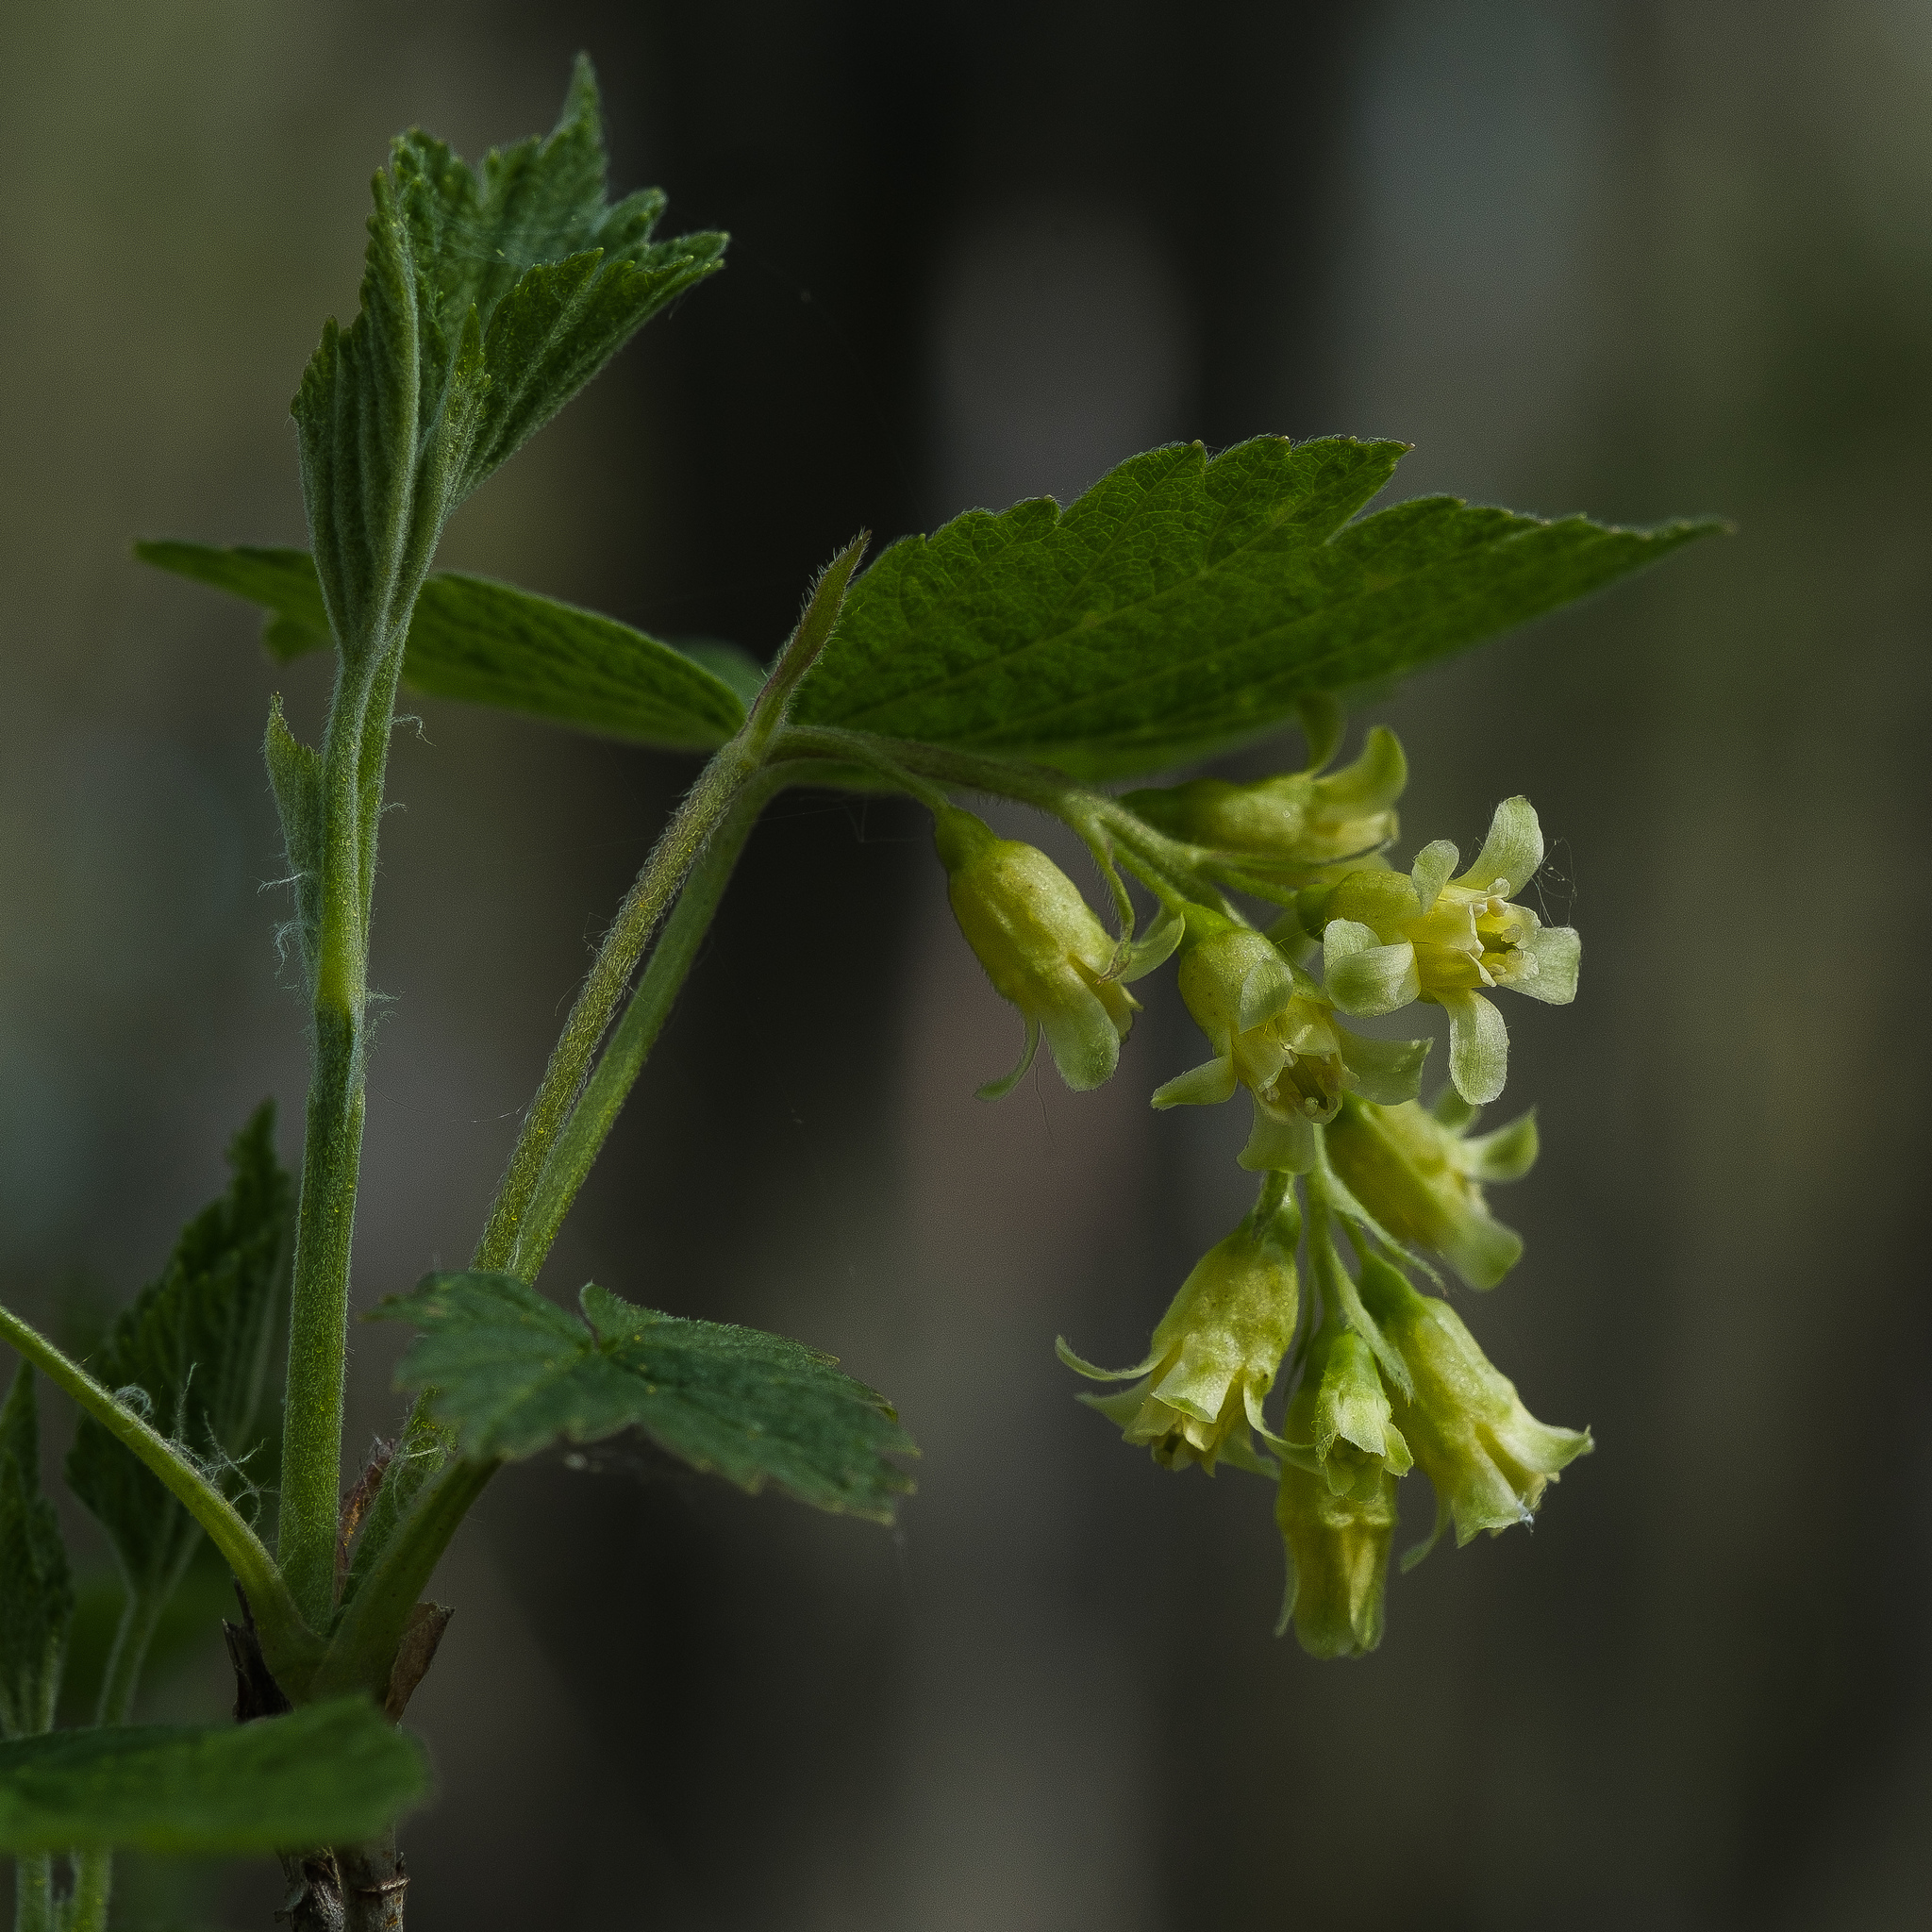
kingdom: Plantae
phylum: Tracheophyta
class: Magnoliopsida
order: Saxifragales
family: Grossulariaceae
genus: Ribes
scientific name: Ribes americanum
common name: American black currant
